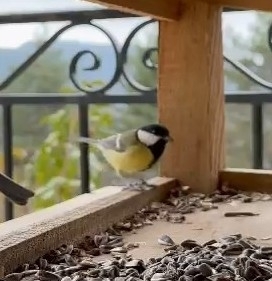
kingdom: Animalia
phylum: Chordata
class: Aves
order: Passeriformes
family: Paridae
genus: Parus
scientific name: Parus major
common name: Great tit
